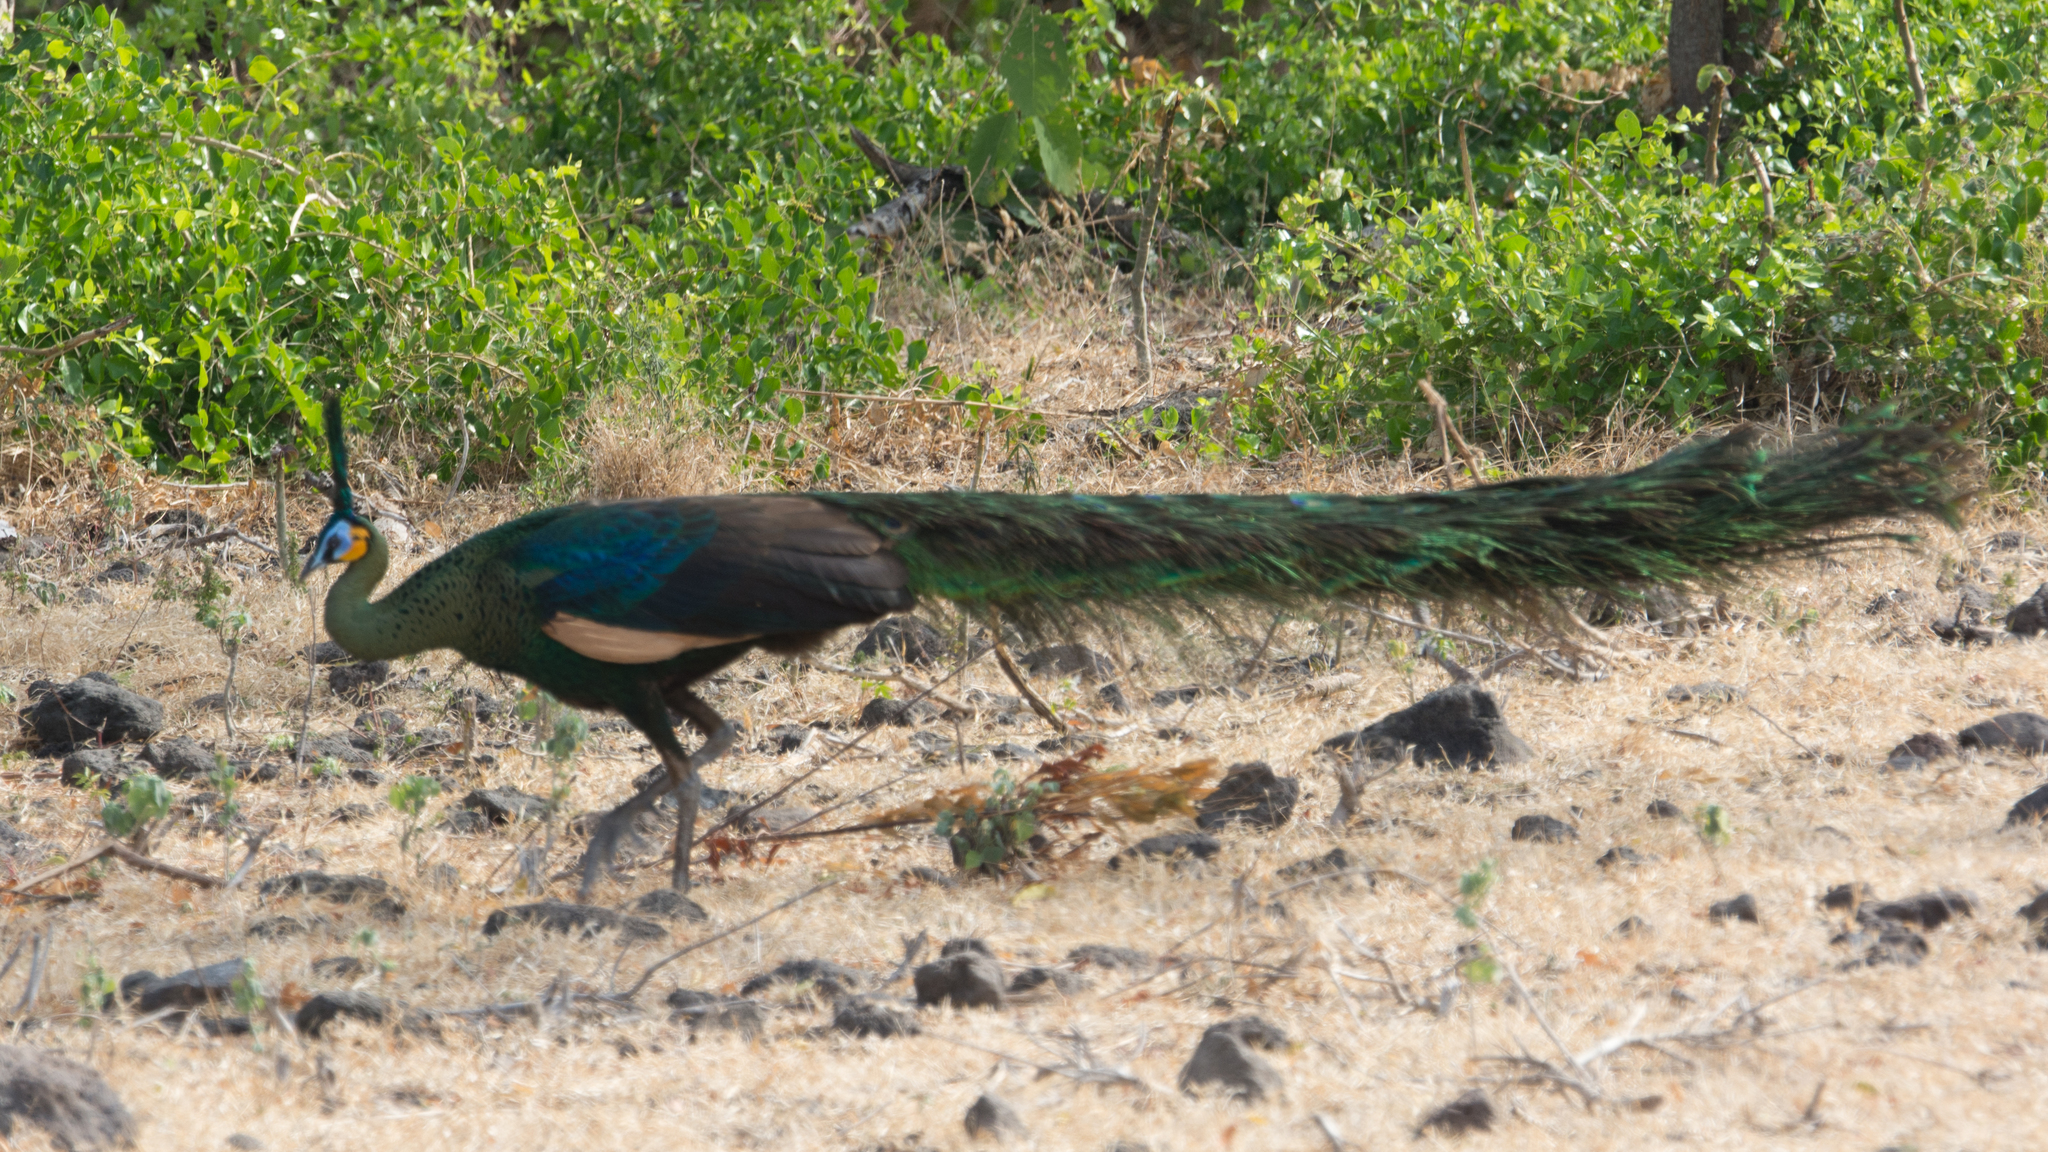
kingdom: Animalia
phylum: Chordata
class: Aves
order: Galliformes
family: Phasianidae
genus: Pavo
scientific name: Pavo muticus
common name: Green peafowl
